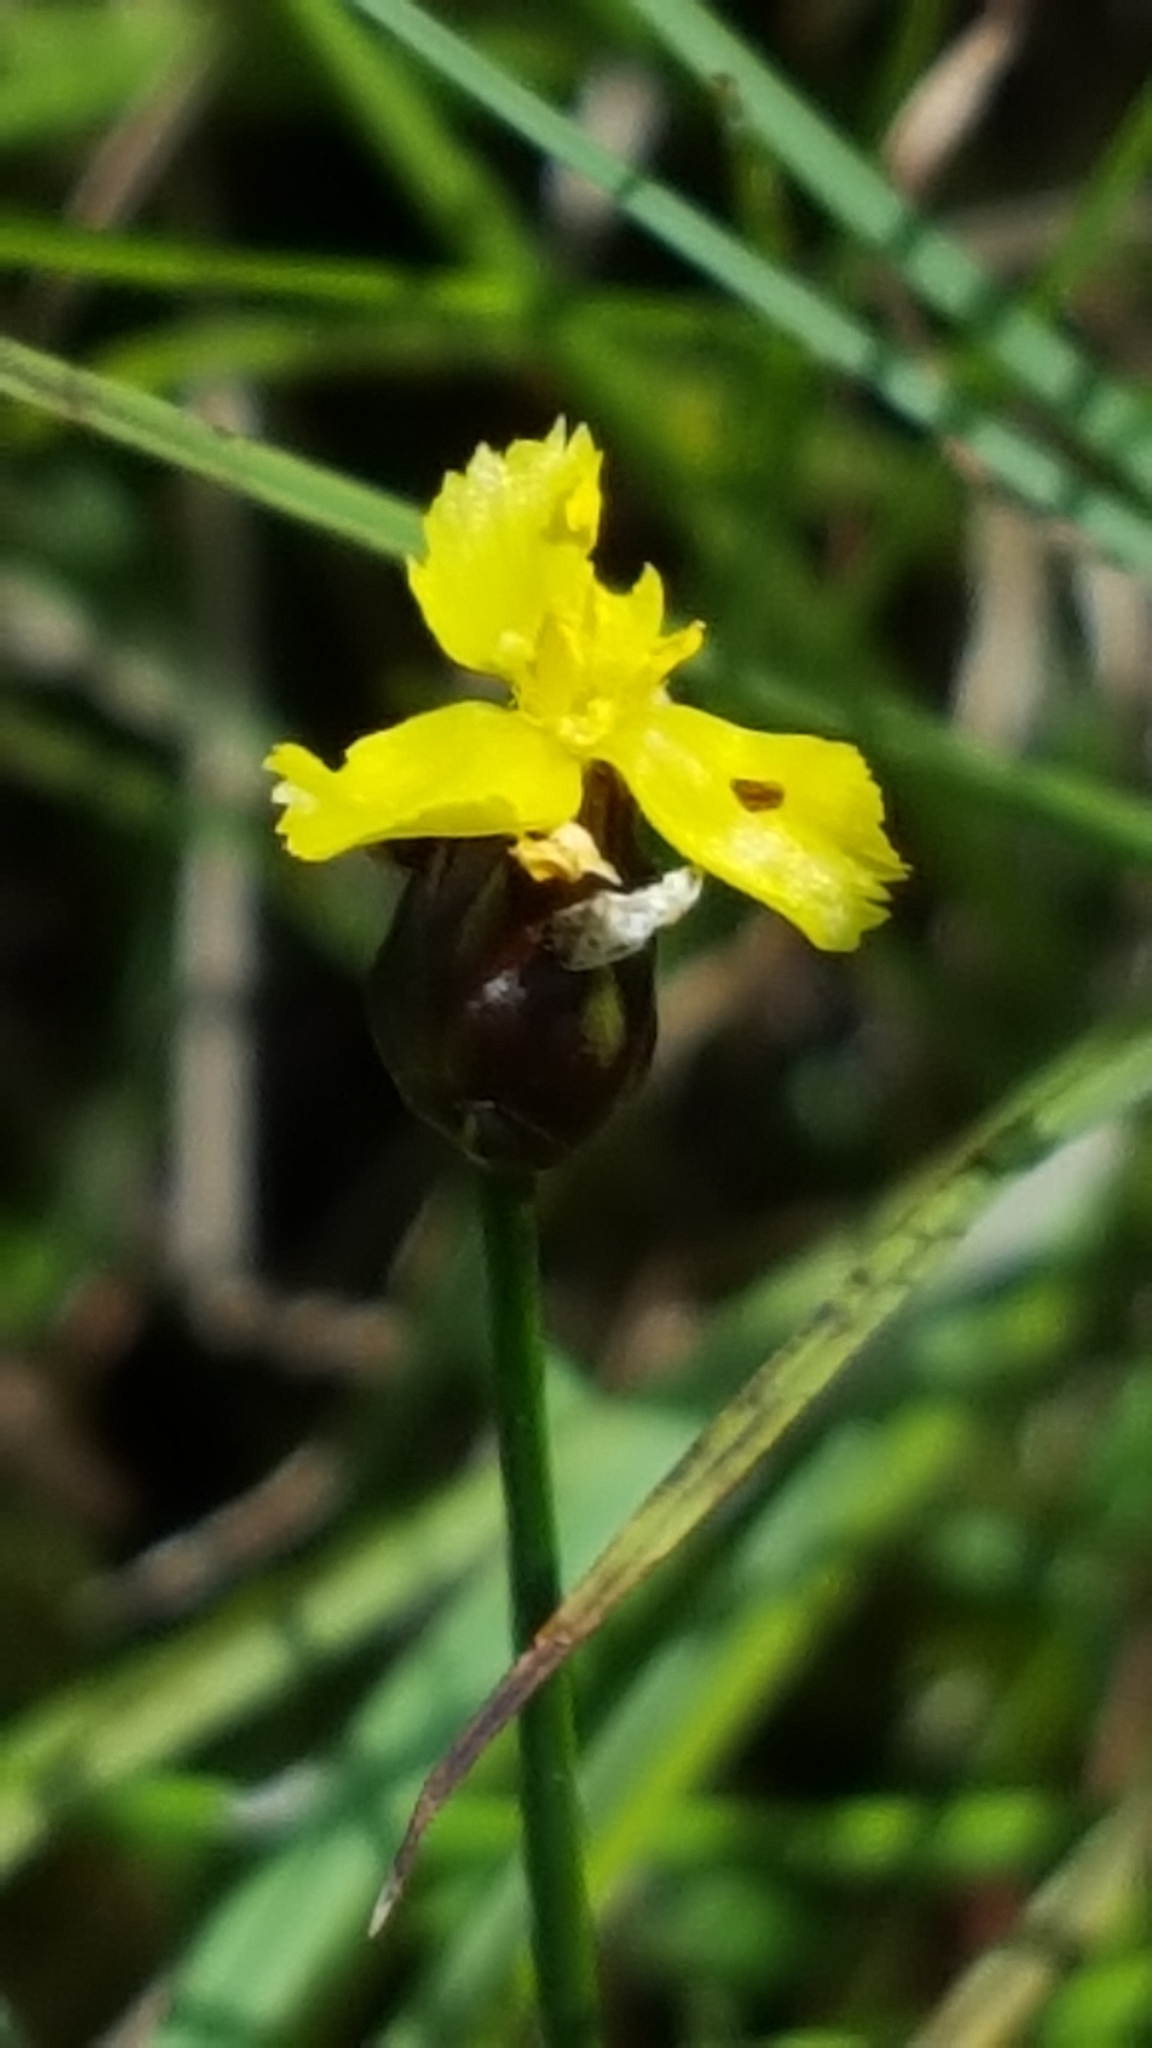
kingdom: Plantae
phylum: Tracheophyta
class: Liliopsida
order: Poales
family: Xyridaceae
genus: Xyris
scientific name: Xyris montana
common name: Northern yellow-eyed-grass
